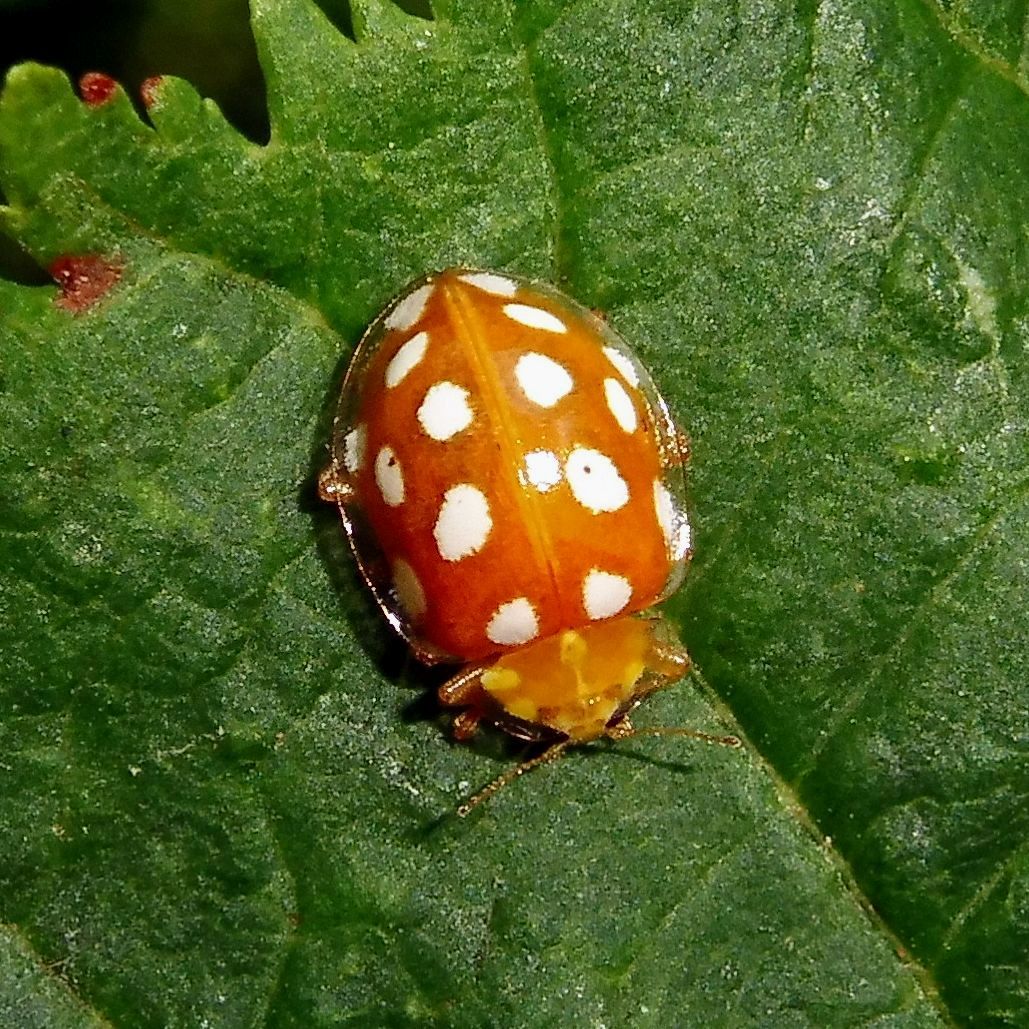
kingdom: Animalia
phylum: Arthropoda
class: Insecta
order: Coleoptera
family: Coccinellidae
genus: Halyzia
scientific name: Halyzia sedecimguttata
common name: Orange ladybird
